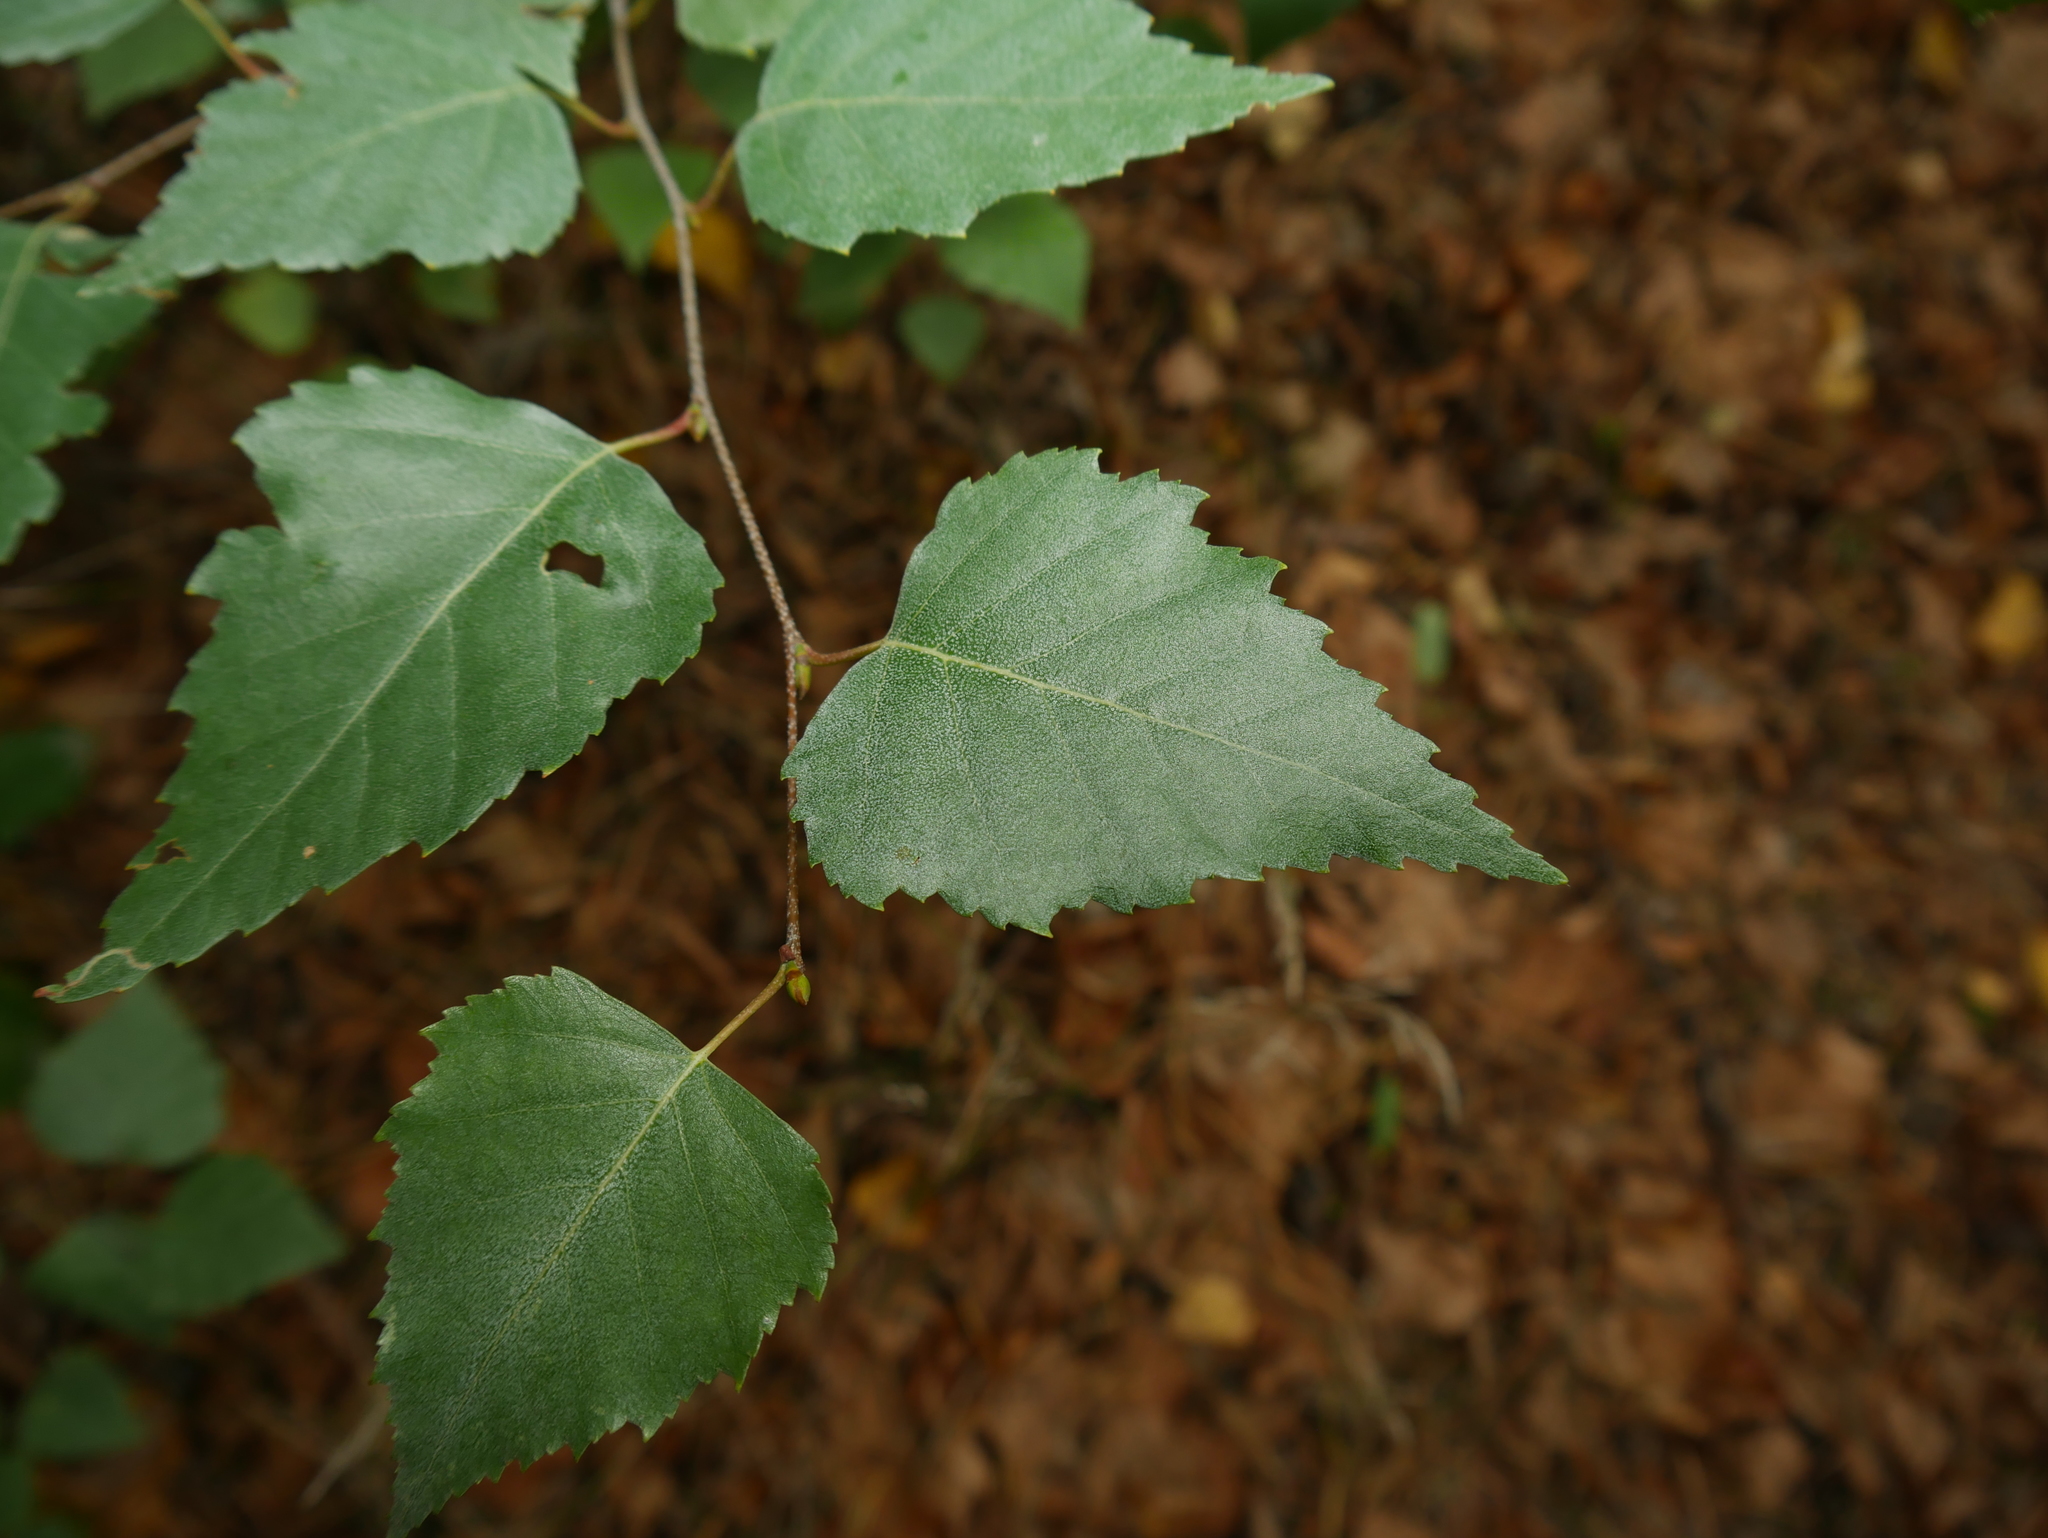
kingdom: Plantae
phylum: Tracheophyta
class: Magnoliopsida
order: Fagales
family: Betulaceae
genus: Betula
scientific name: Betula pendula
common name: Silver birch
